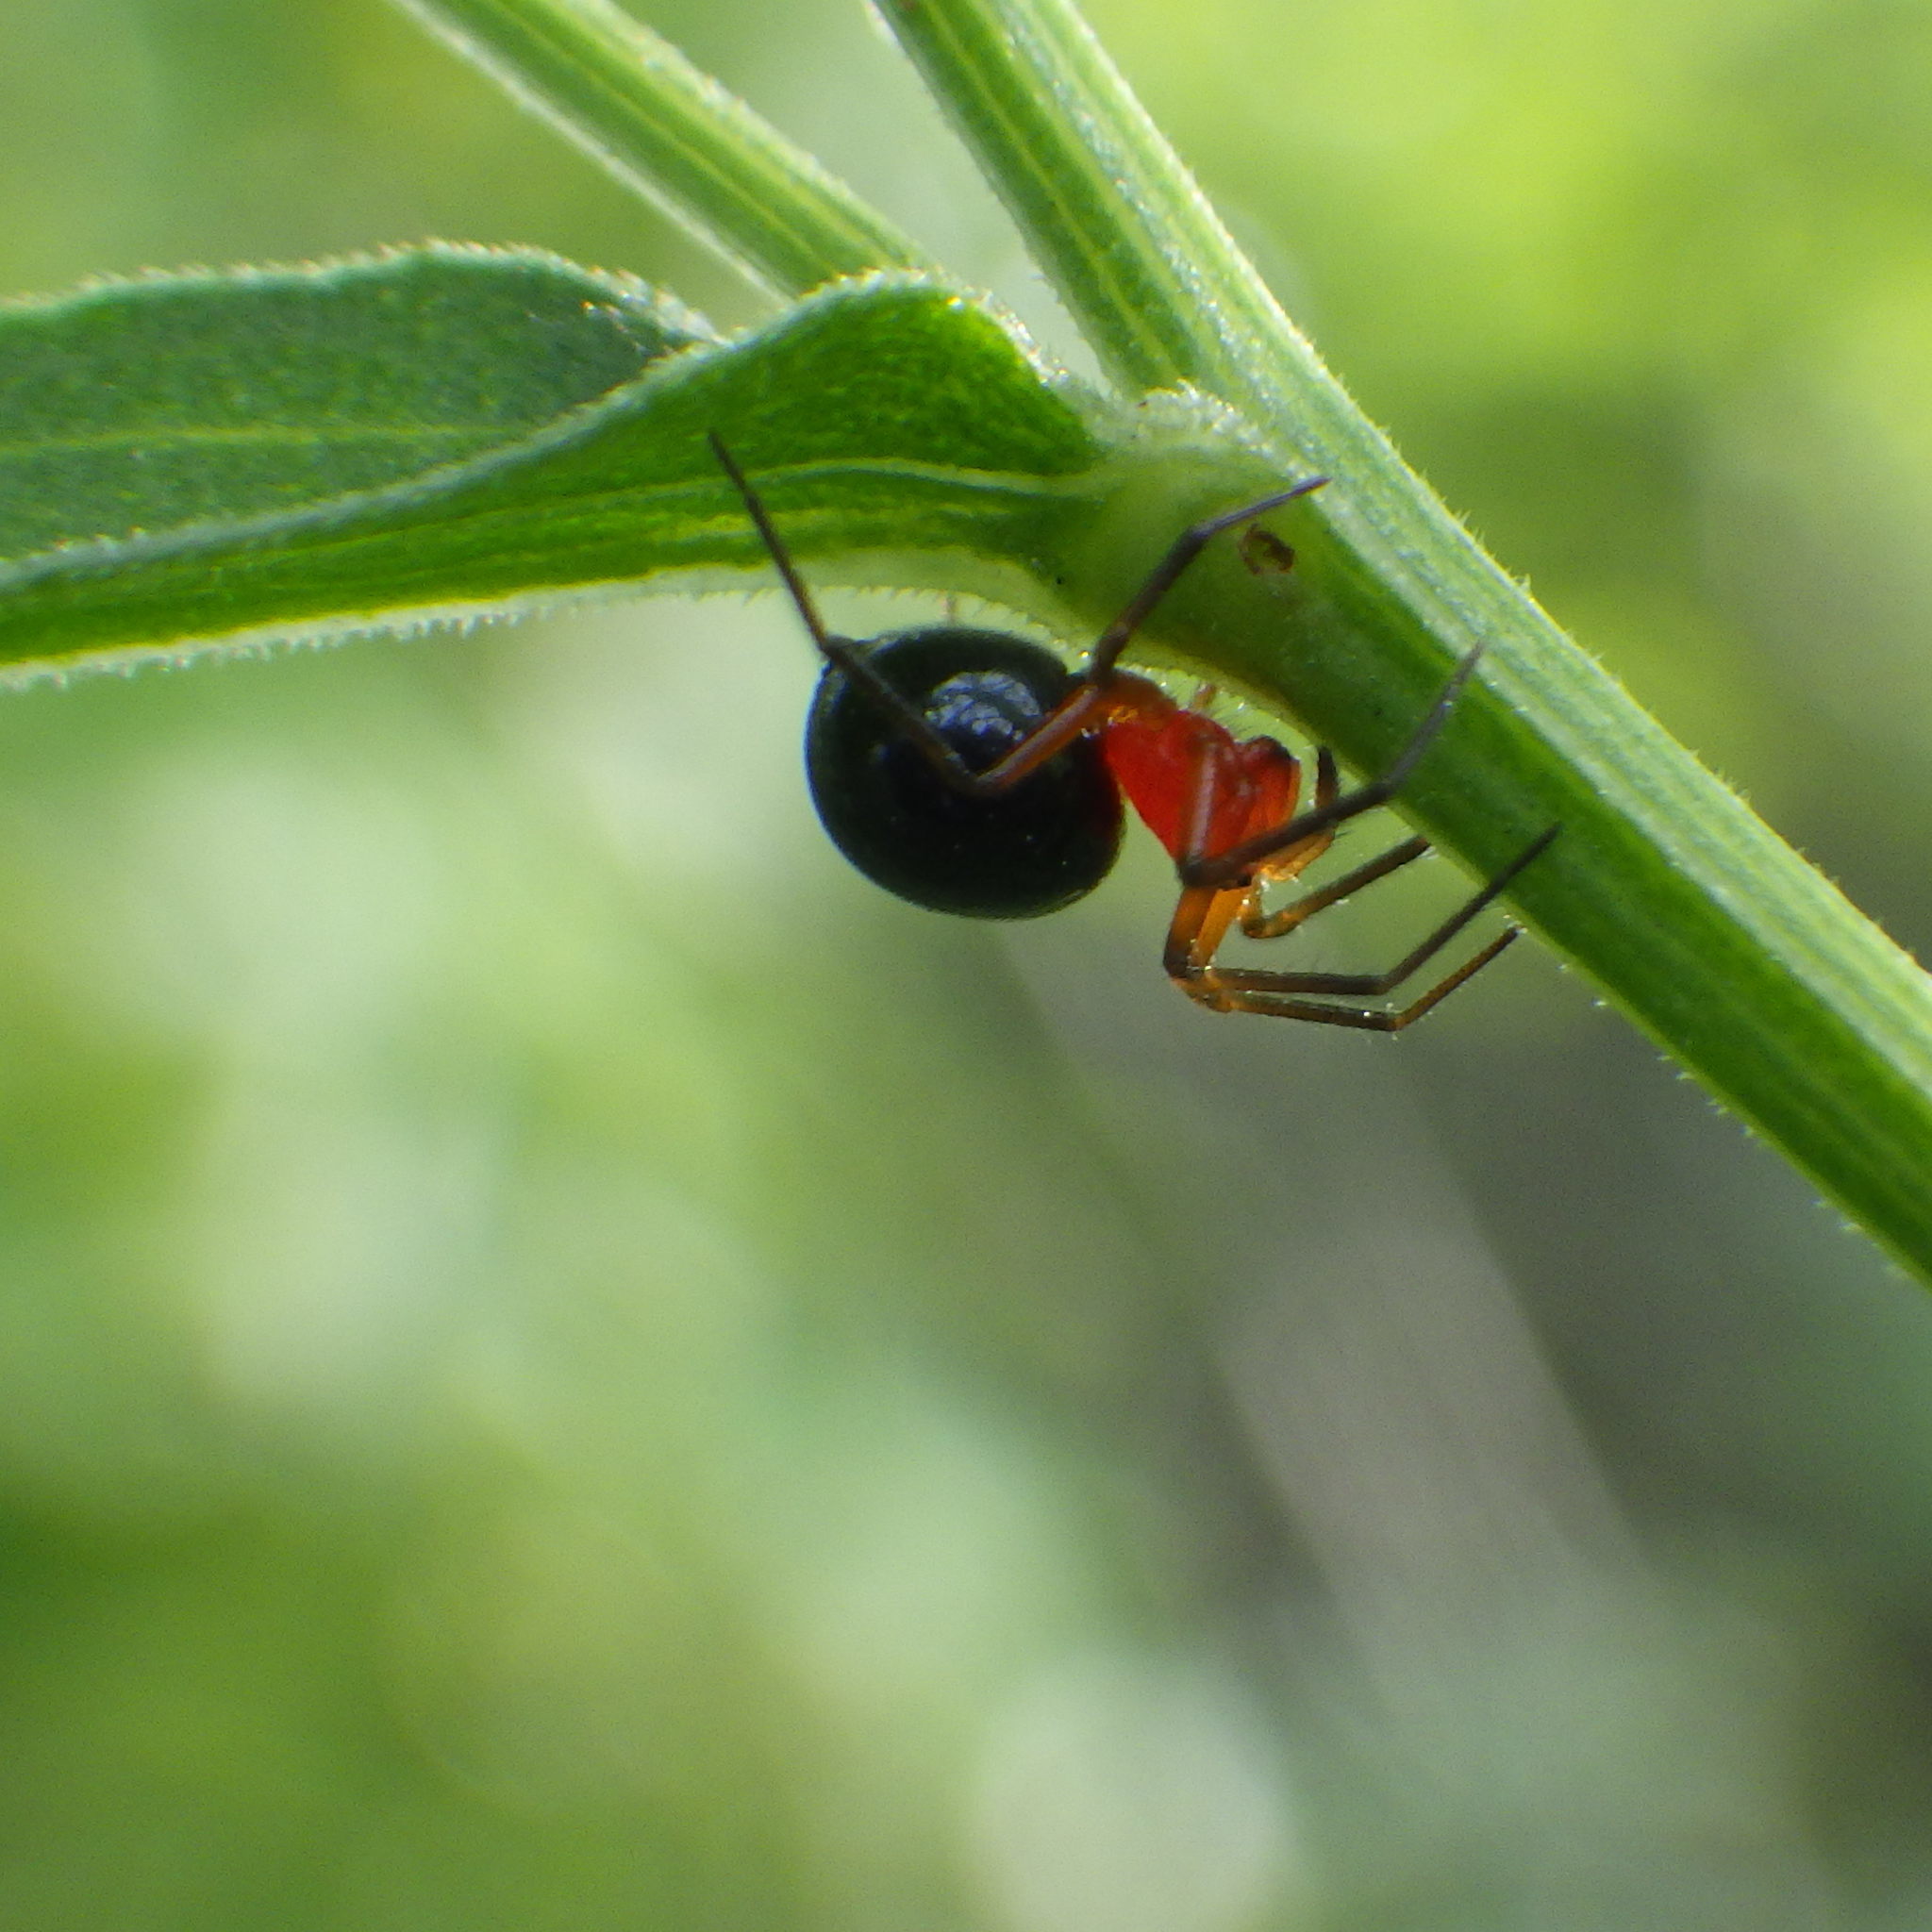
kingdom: Animalia
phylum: Arthropoda
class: Arachnida
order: Araneae
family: Linyphiidae
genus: Hypselistes
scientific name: Hypselistes florens
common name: Peatland sheetweb weaver
